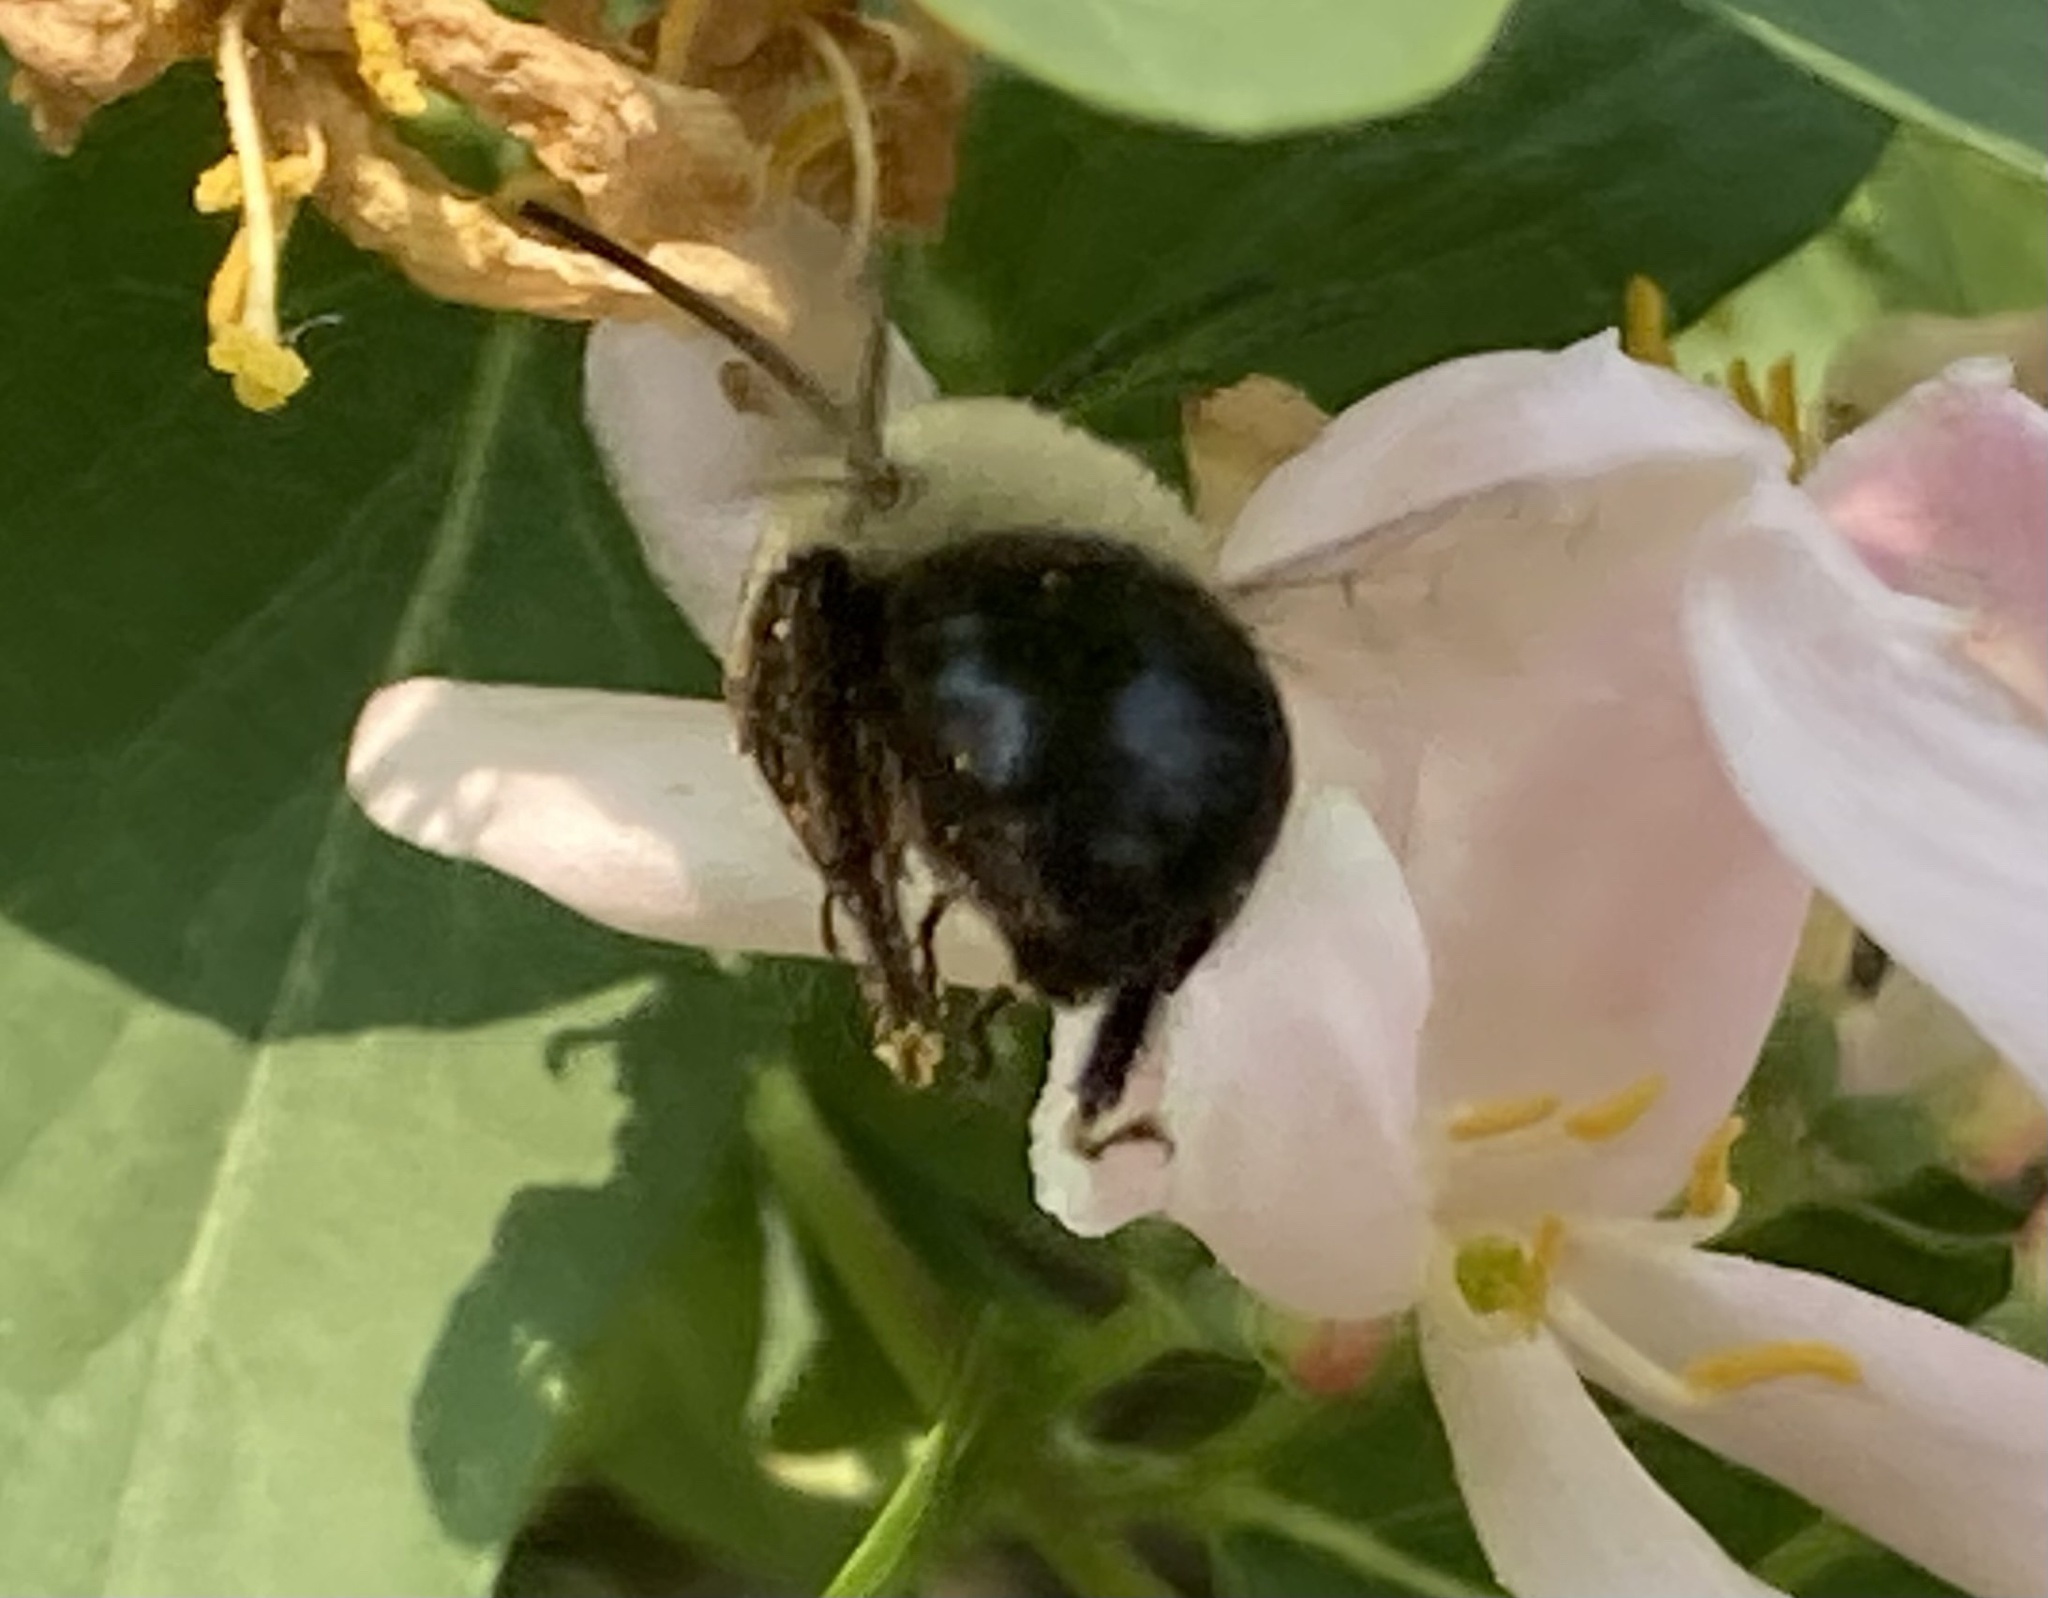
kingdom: Animalia
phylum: Arthropoda
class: Insecta
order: Hymenoptera
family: Apidae
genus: Habropoda
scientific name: Habropoda laboriosa
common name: Southeastern blueberry bee
